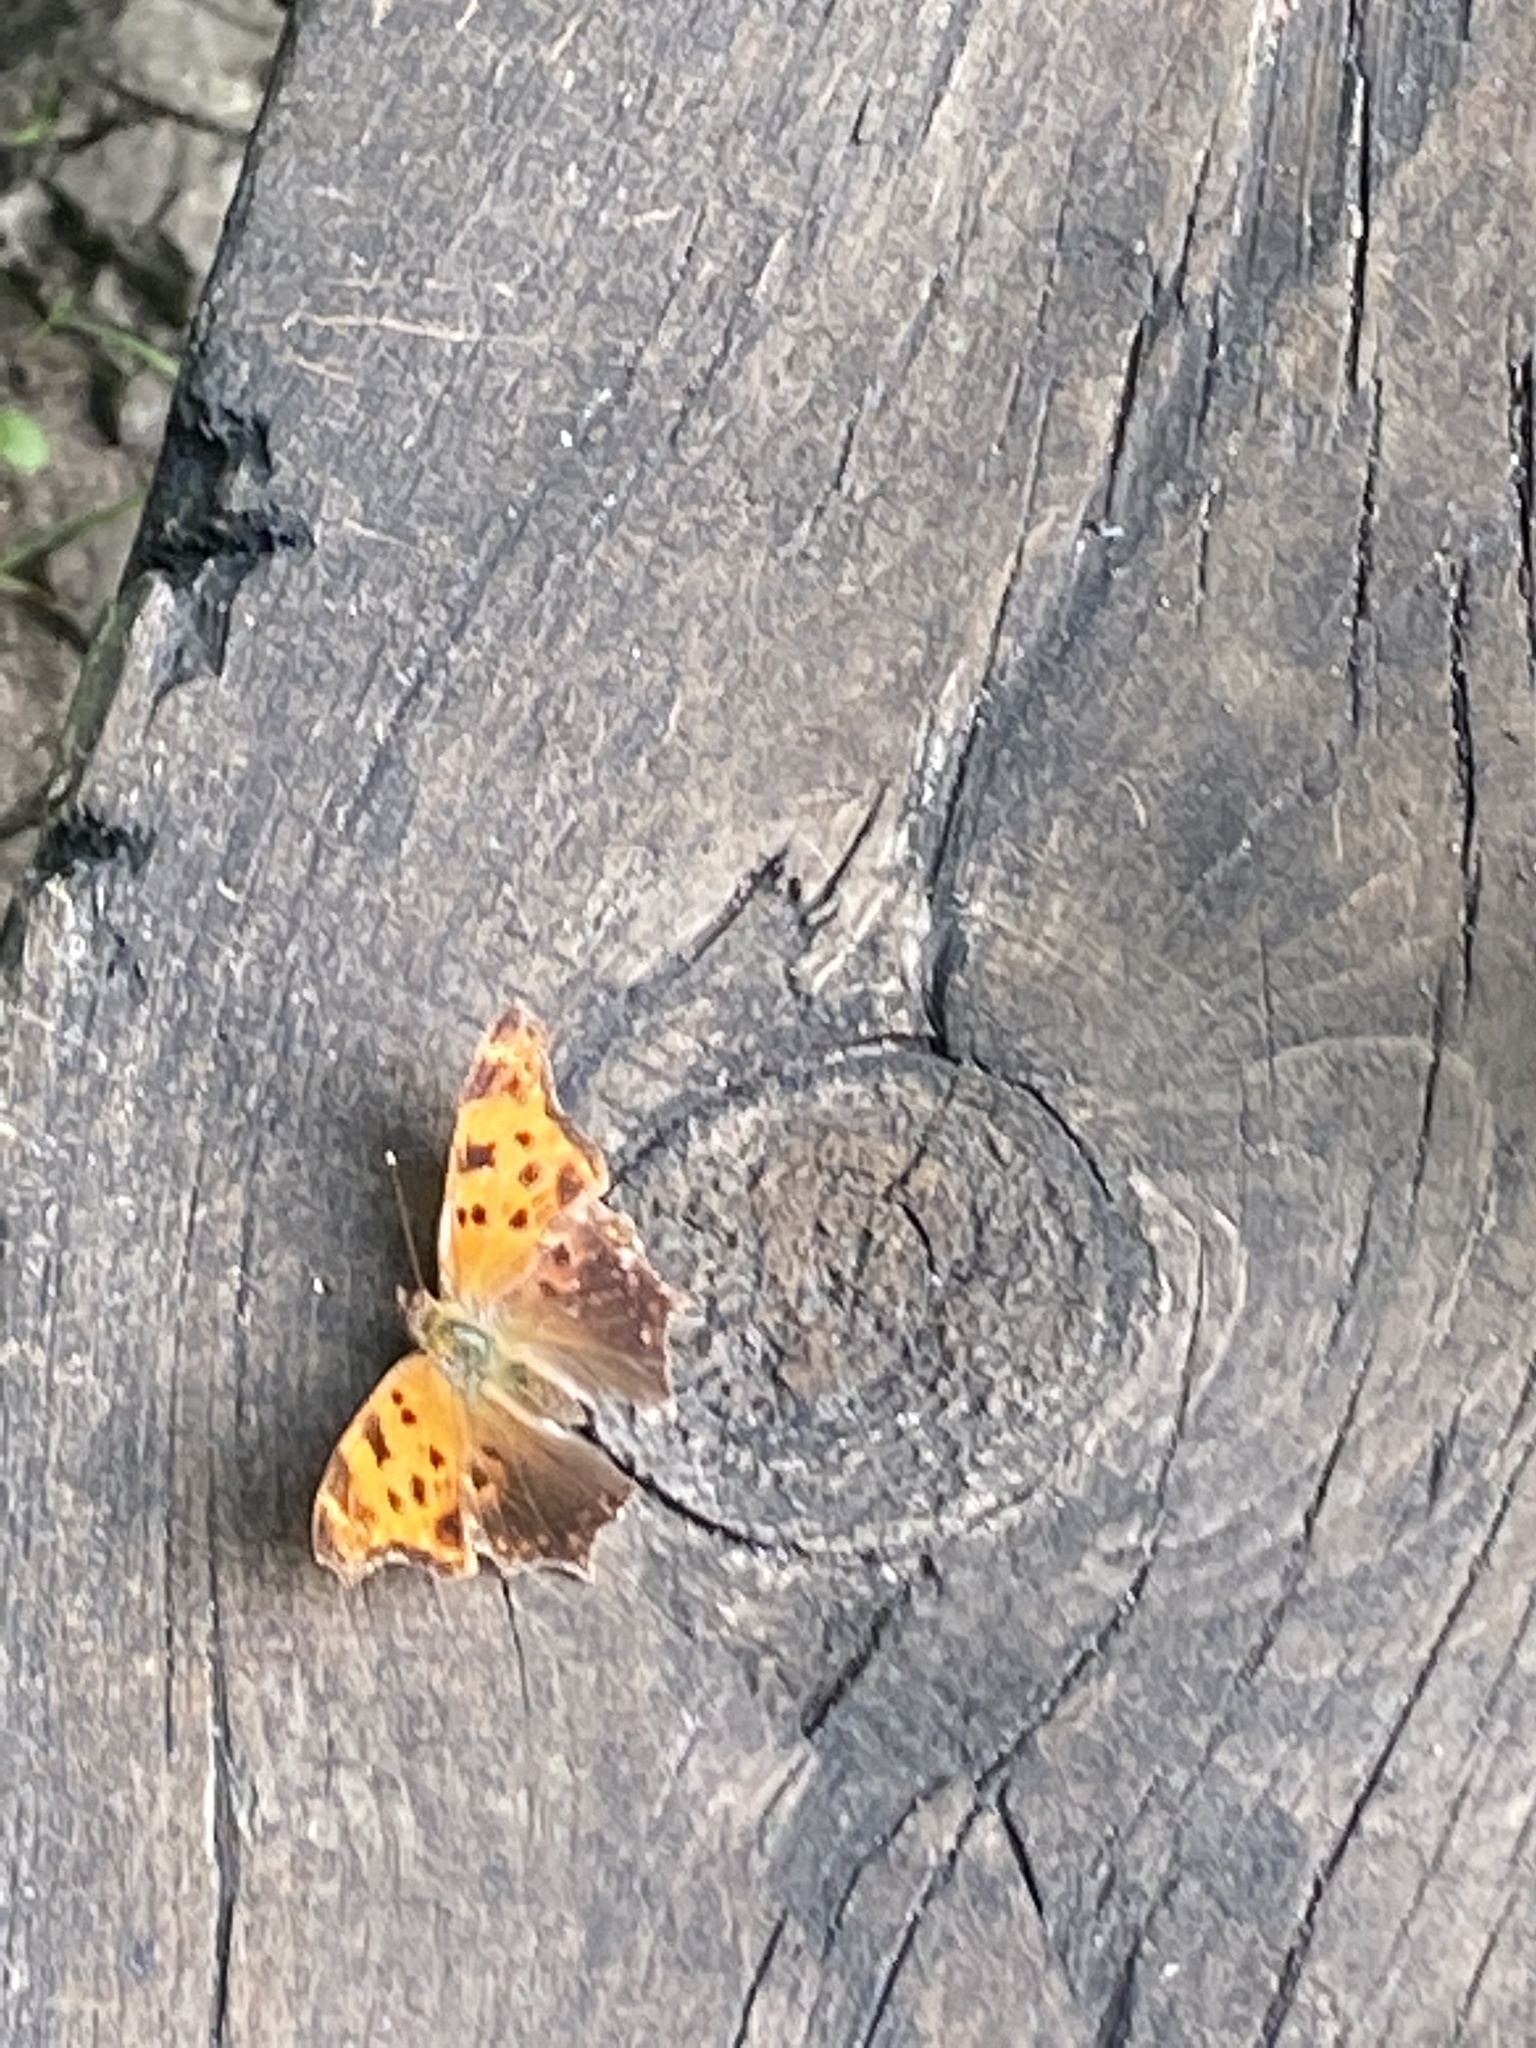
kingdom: Animalia
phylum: Arthropoda
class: Insecta
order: Lepidoptera
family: Nymphalidae
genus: Polygonia
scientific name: Polygonia comma
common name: Eastern comma
